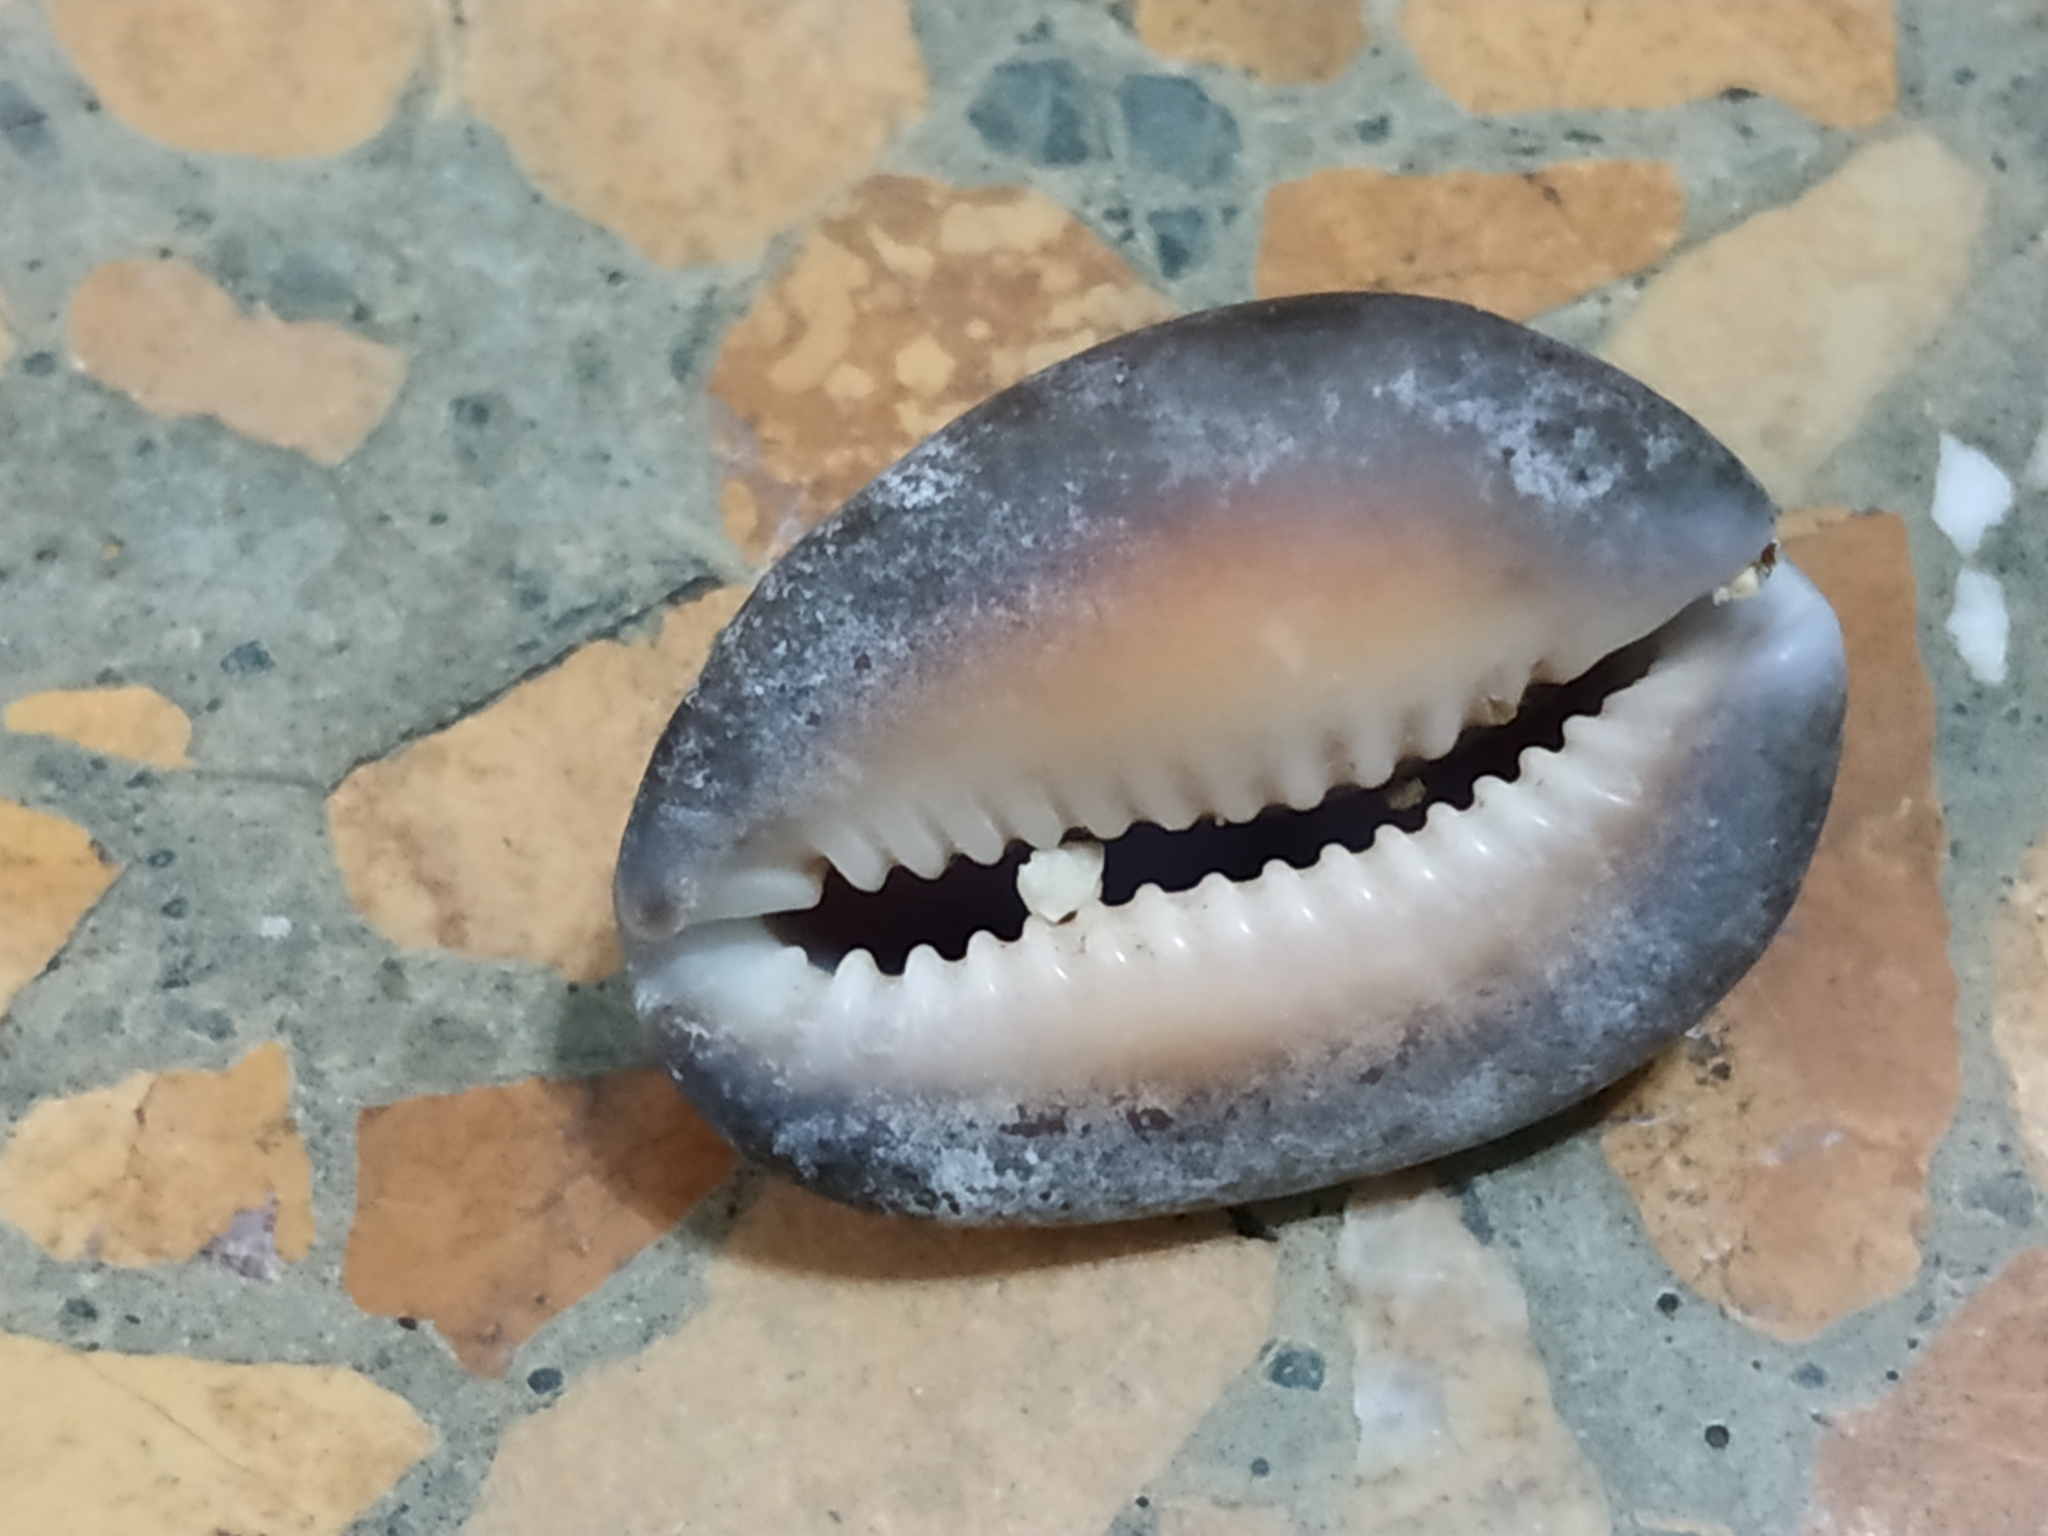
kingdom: Animalia
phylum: Mollusca
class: Gastropoda
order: Littorinimorpha
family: Cypraeidae
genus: Monetaria
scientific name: Monetaria caputserpentis
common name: Serpent's head cowrie
